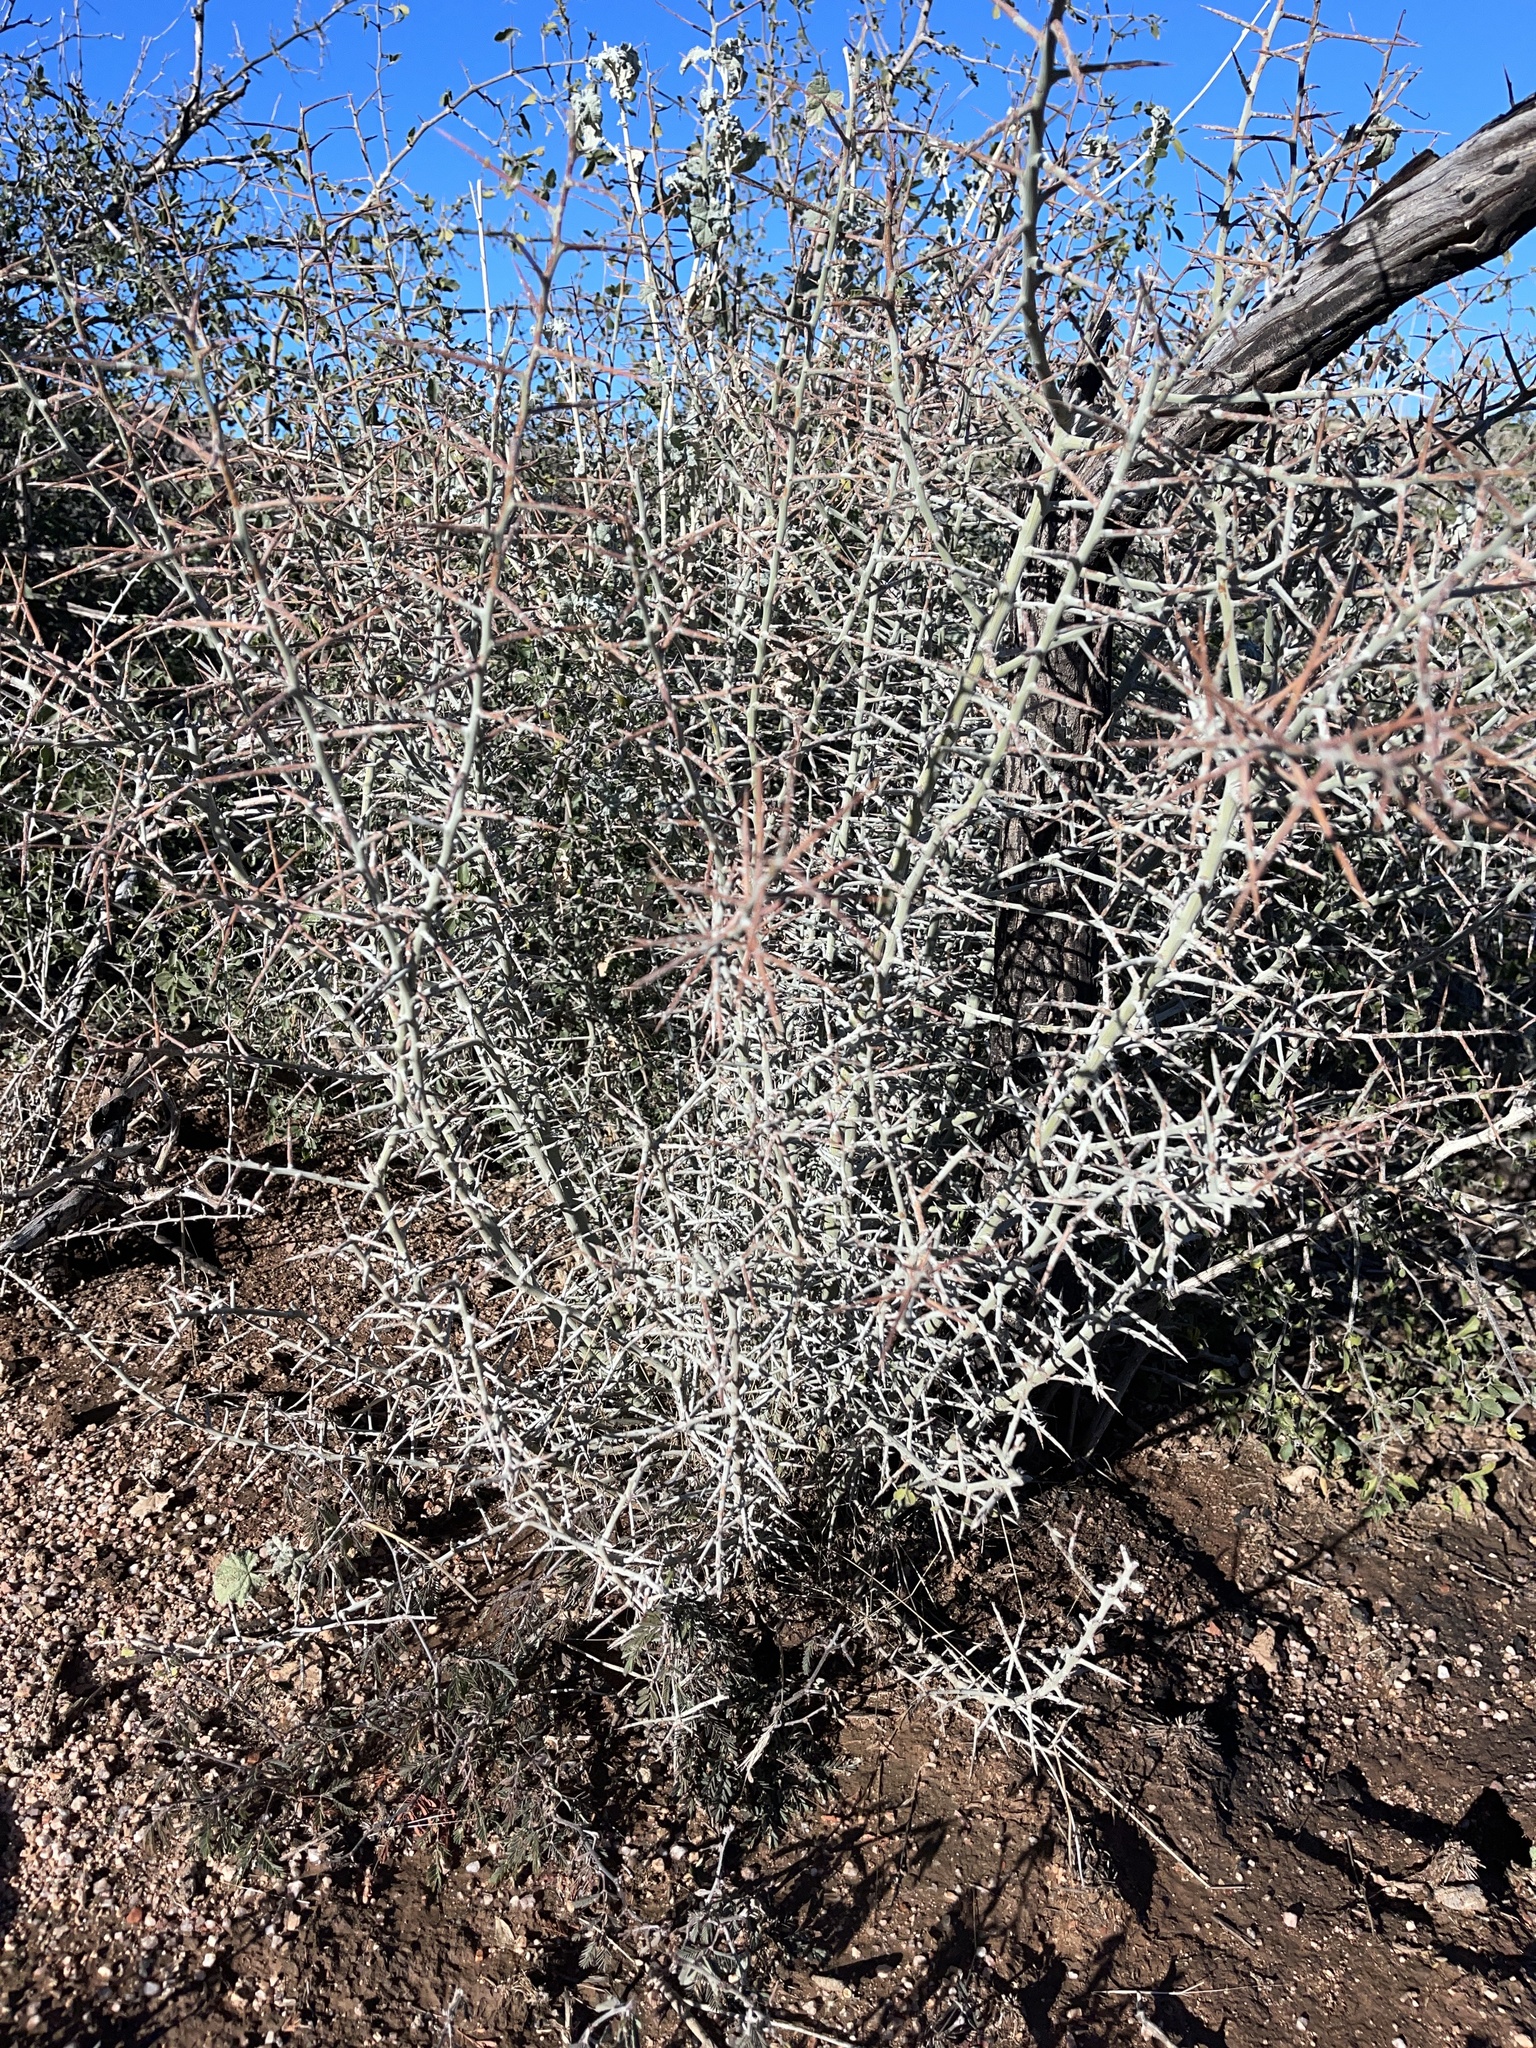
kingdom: Plantae
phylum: Tracheophyta
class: Magnoliopsida
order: Rosales
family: Rhamnaceae
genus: Sarcomphalus
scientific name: Sarcomphalus obtusifolius
